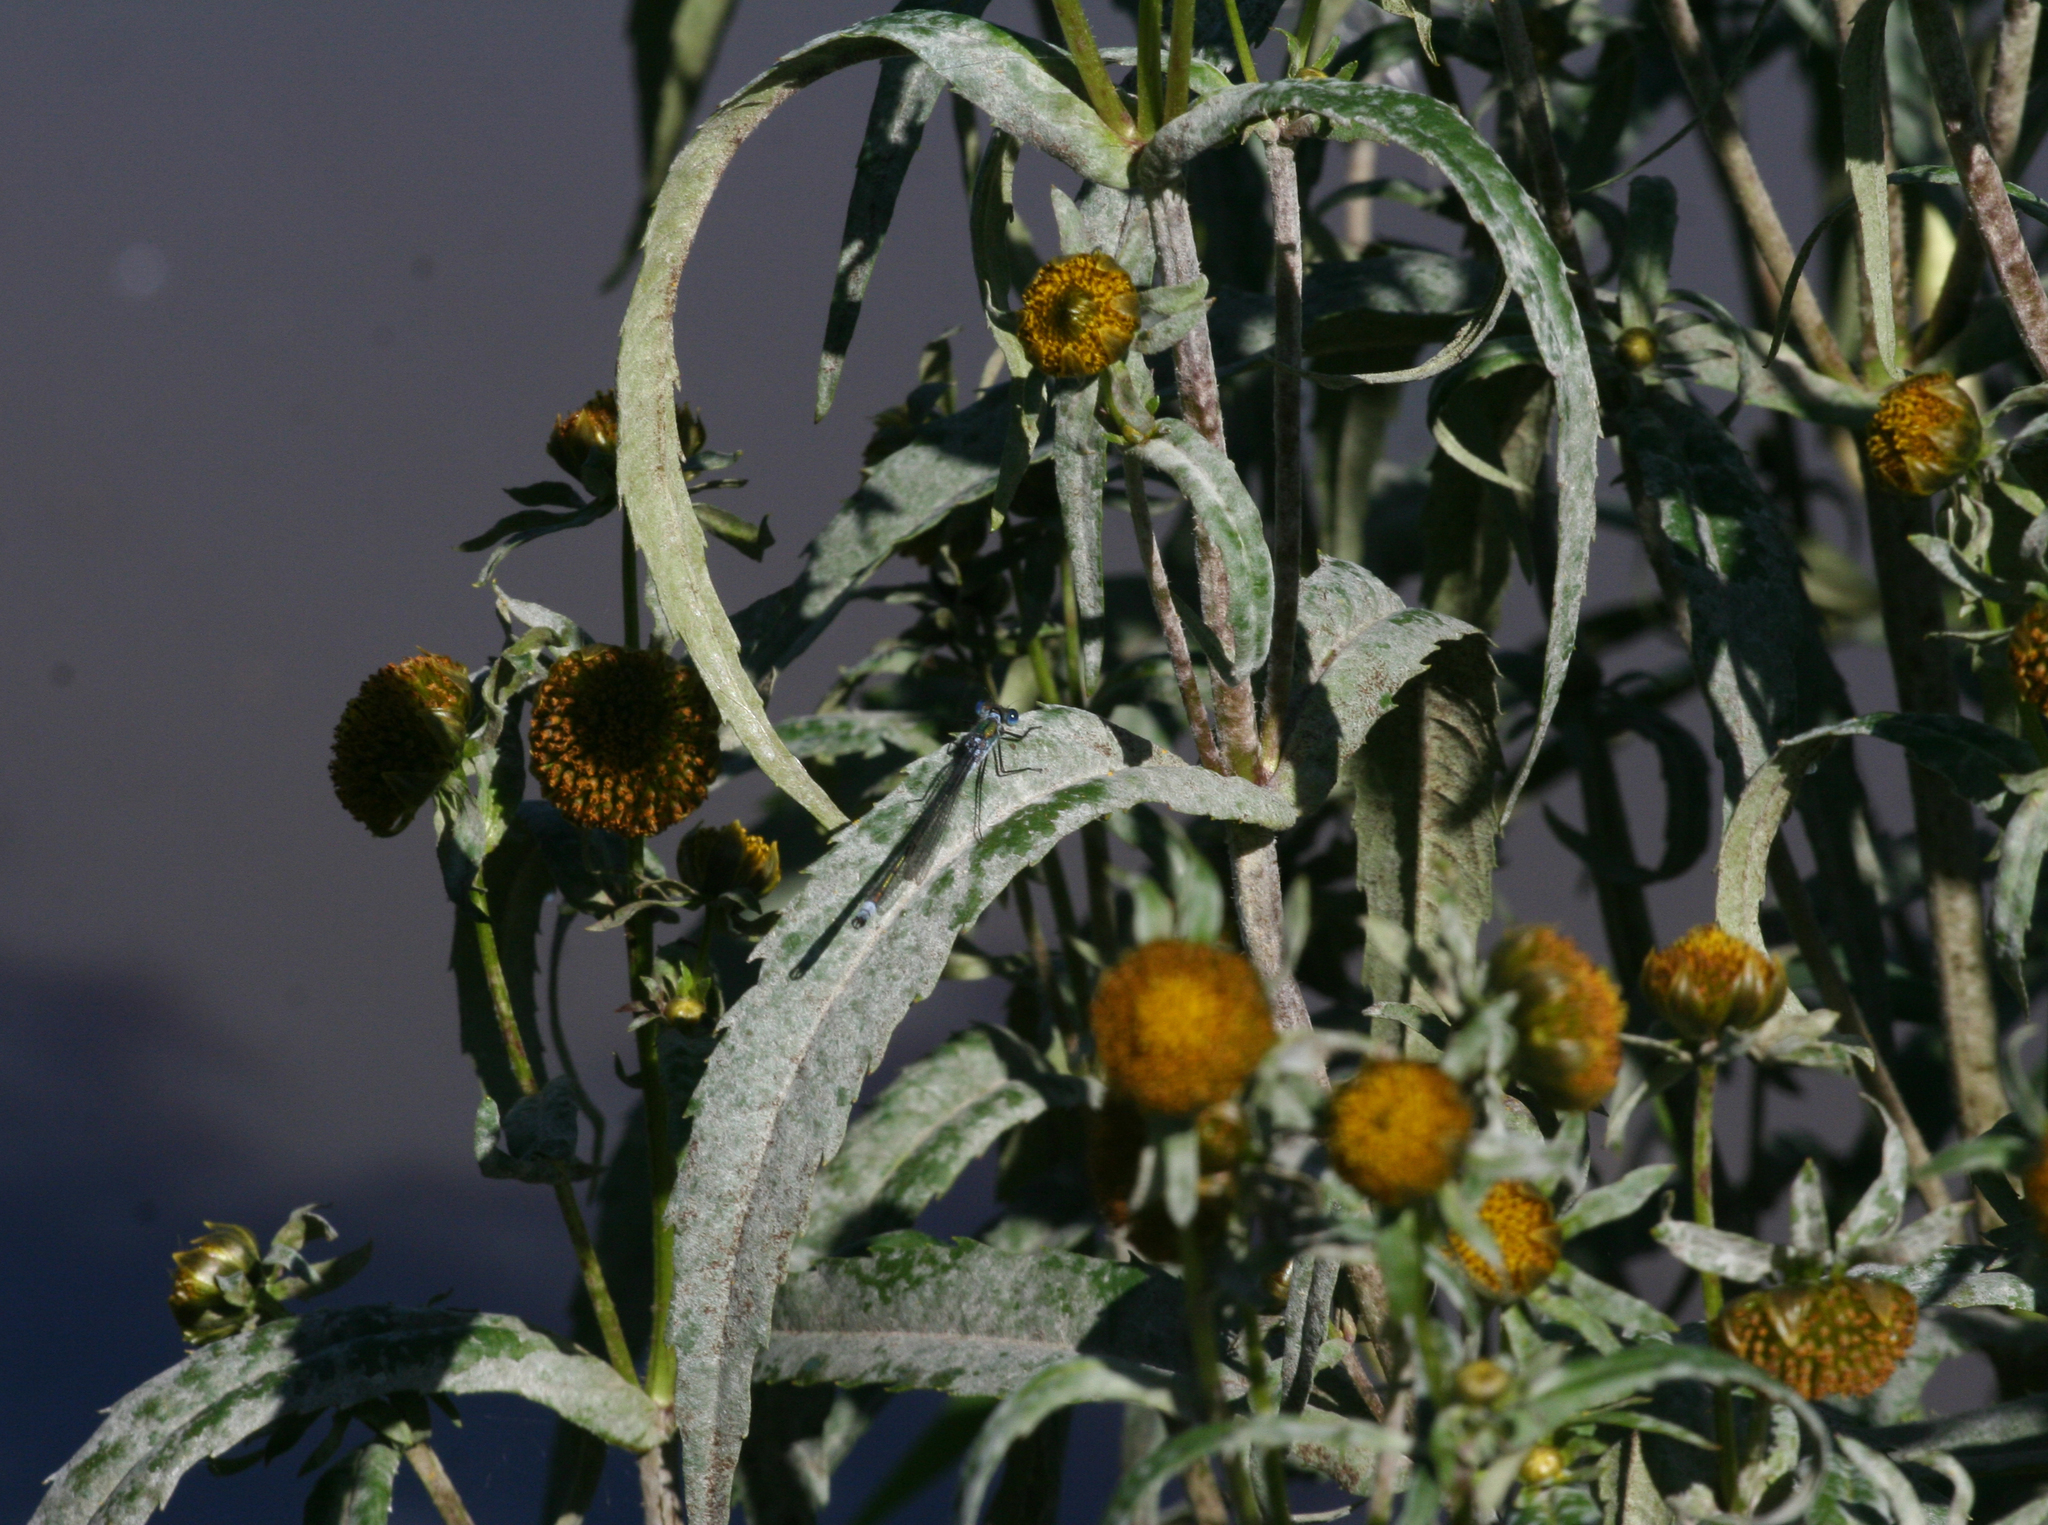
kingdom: Plantae
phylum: Tracheophyta
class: Magnoliopsida
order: Asterales
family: Asteraceae
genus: Bidens
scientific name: Bidens cernua
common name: Nodding bur-marigold
